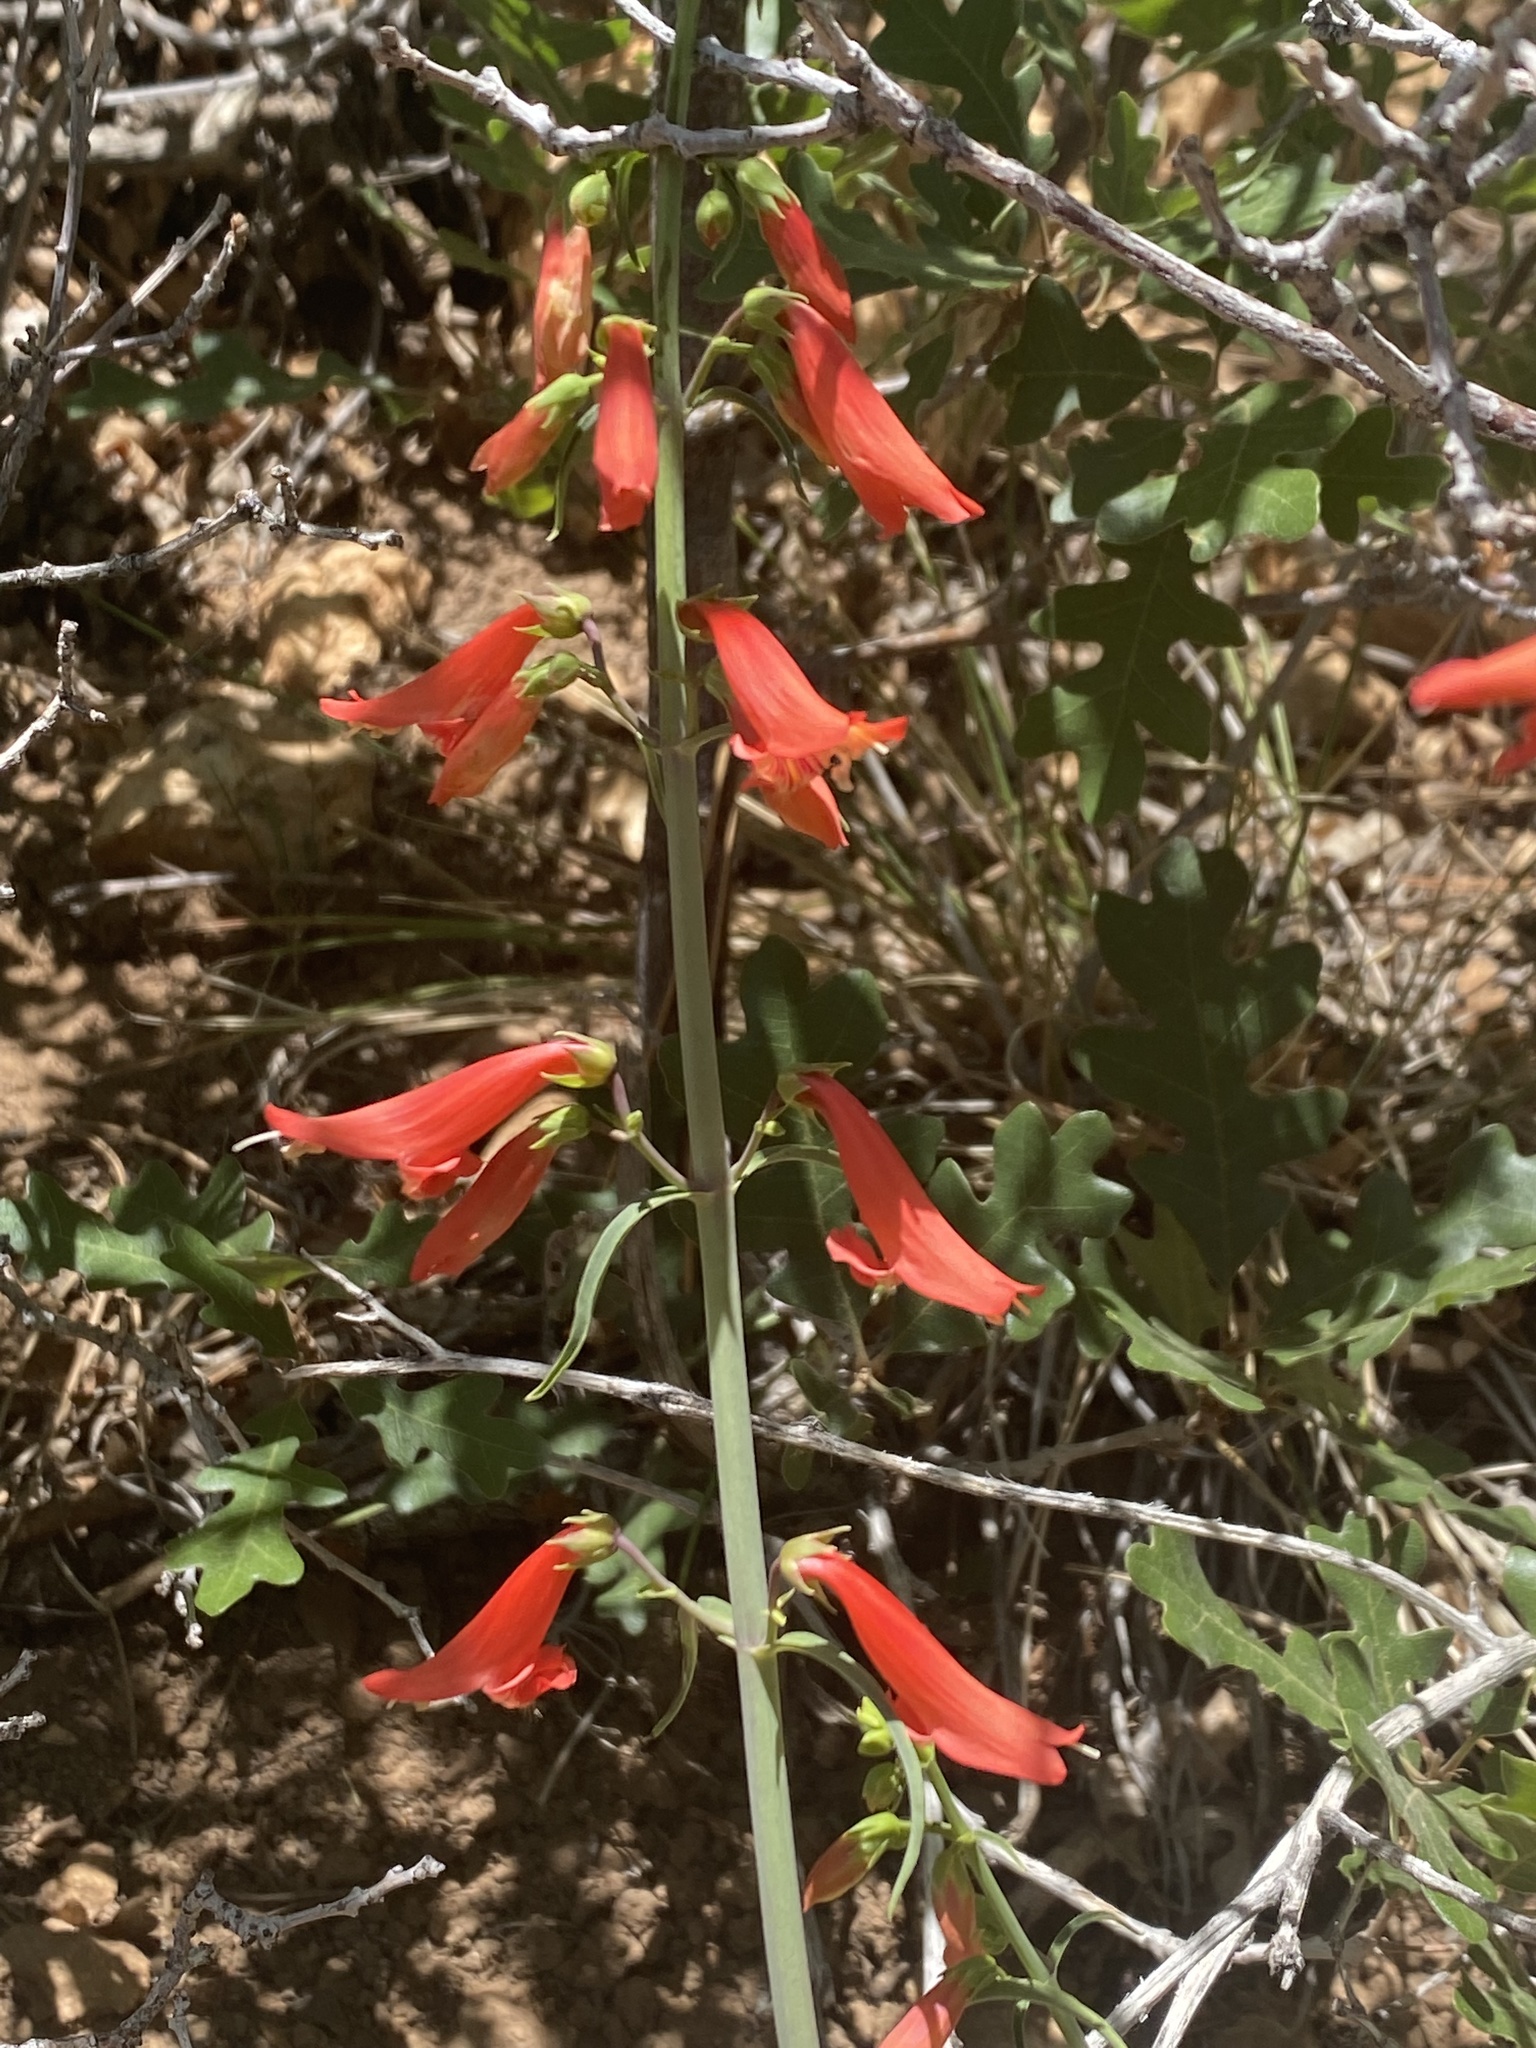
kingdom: Plantae
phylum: Tracheophyta
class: Magnoliopsida
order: Lamiales
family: Plantaginaceae
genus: Penstemon
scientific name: Penstemon barbatus
